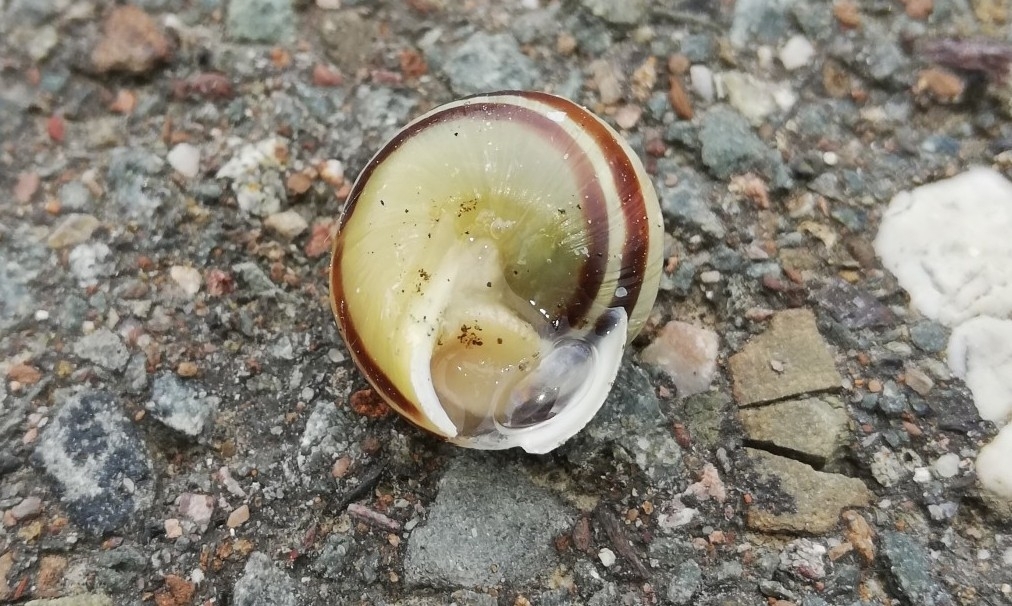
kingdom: Animalia
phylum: Mollusca
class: Gastropoda
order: Stylommatophora
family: Helicidae
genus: Cepaea
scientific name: Cepaea hortensis
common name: White-lip gardensnail
